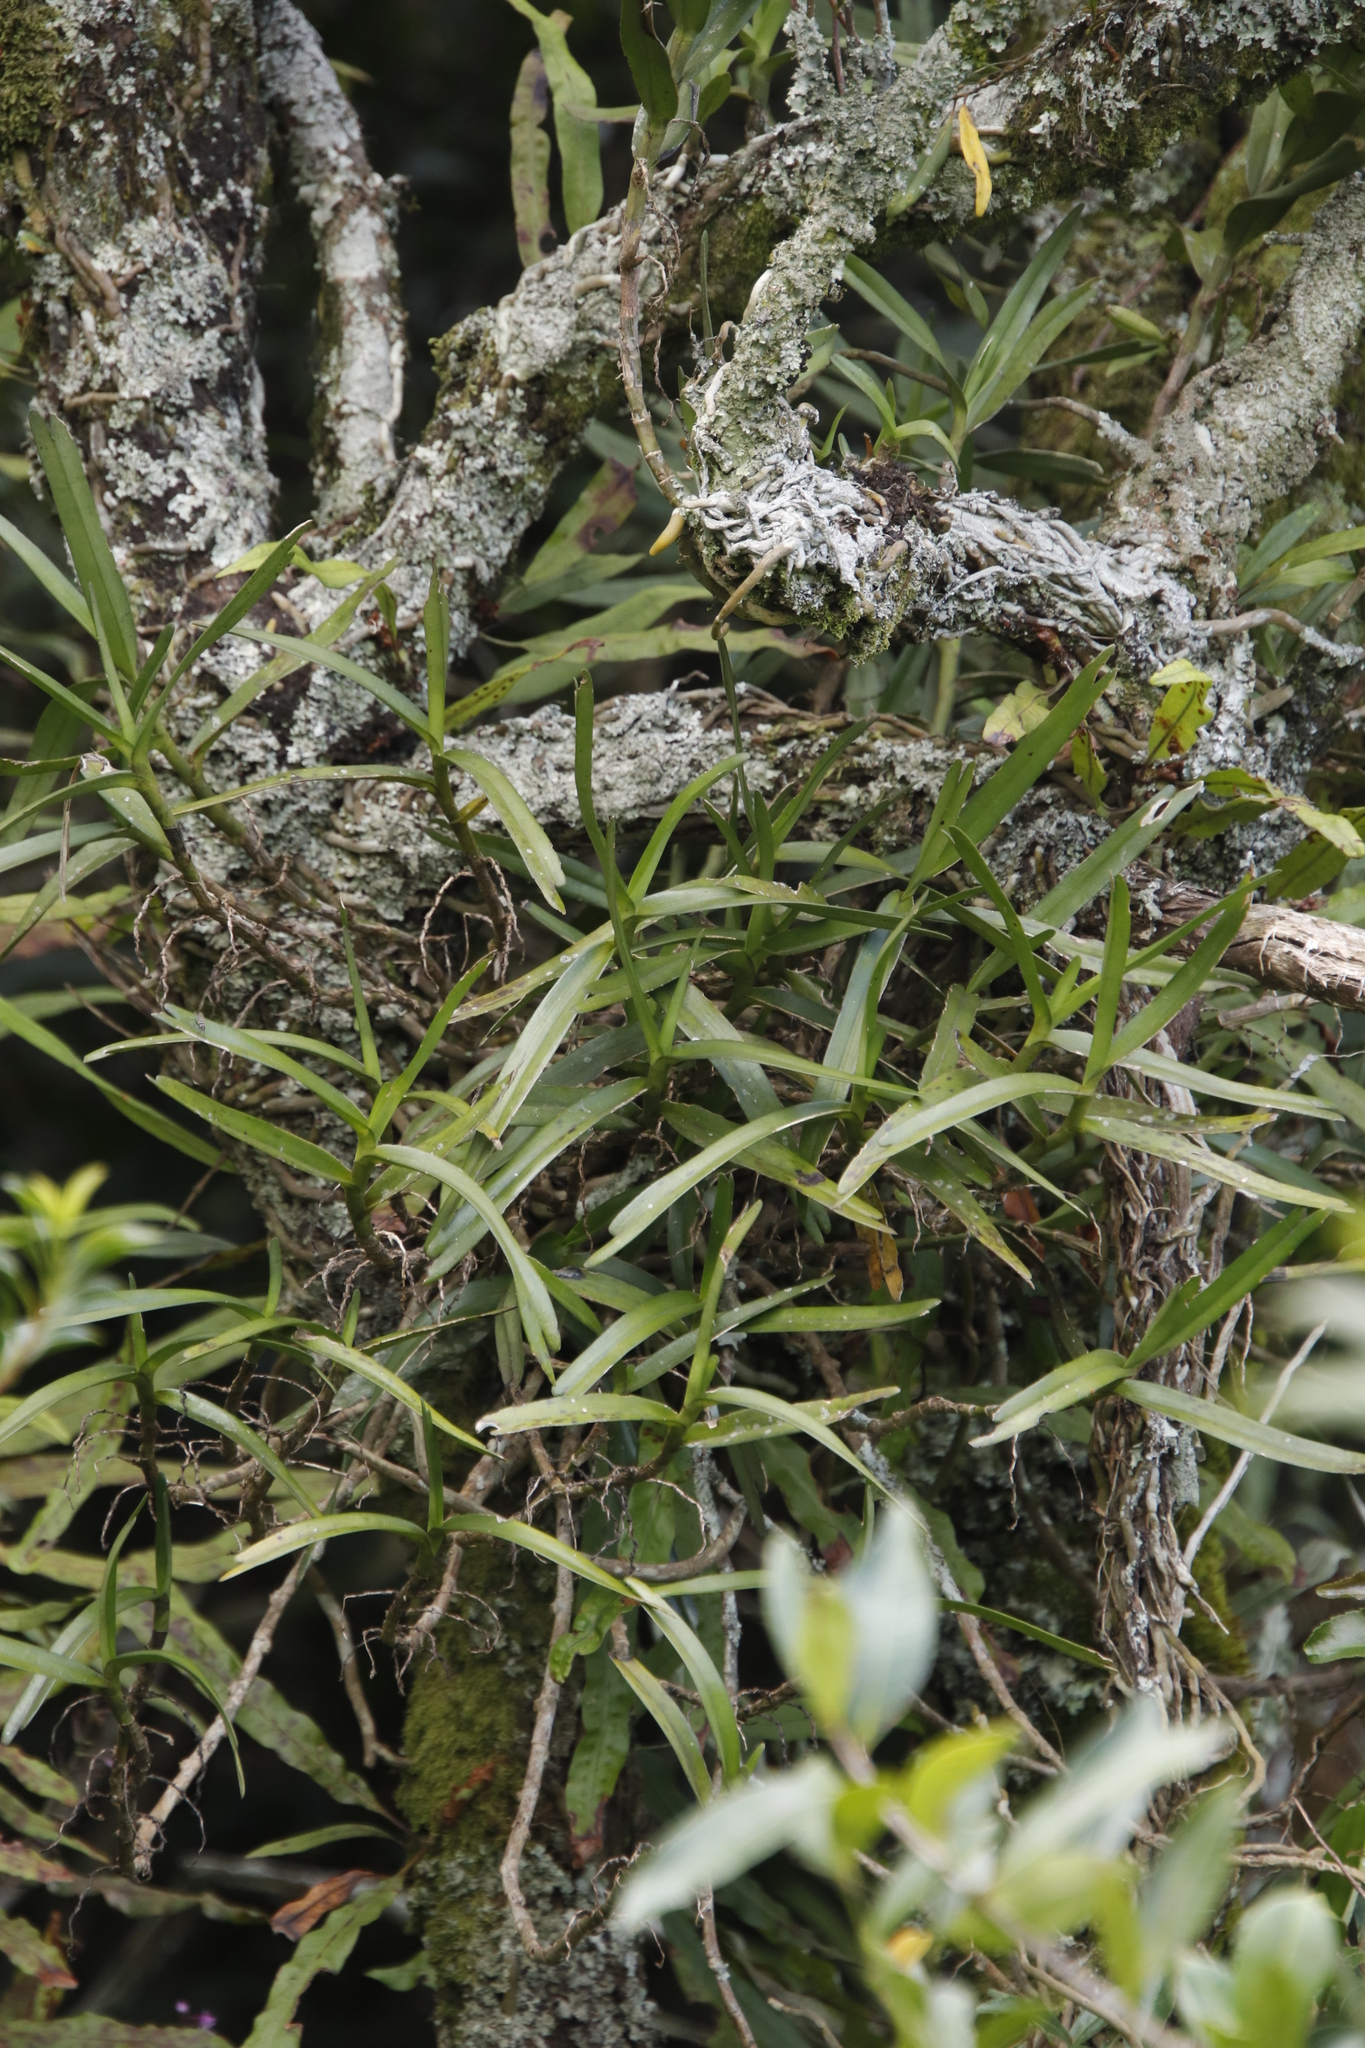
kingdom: Plantae
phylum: Tracheophyta
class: Liliopsida
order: Asparagales
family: Orchidaceae
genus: Tridactyle
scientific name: Tridactyle bicaudata
